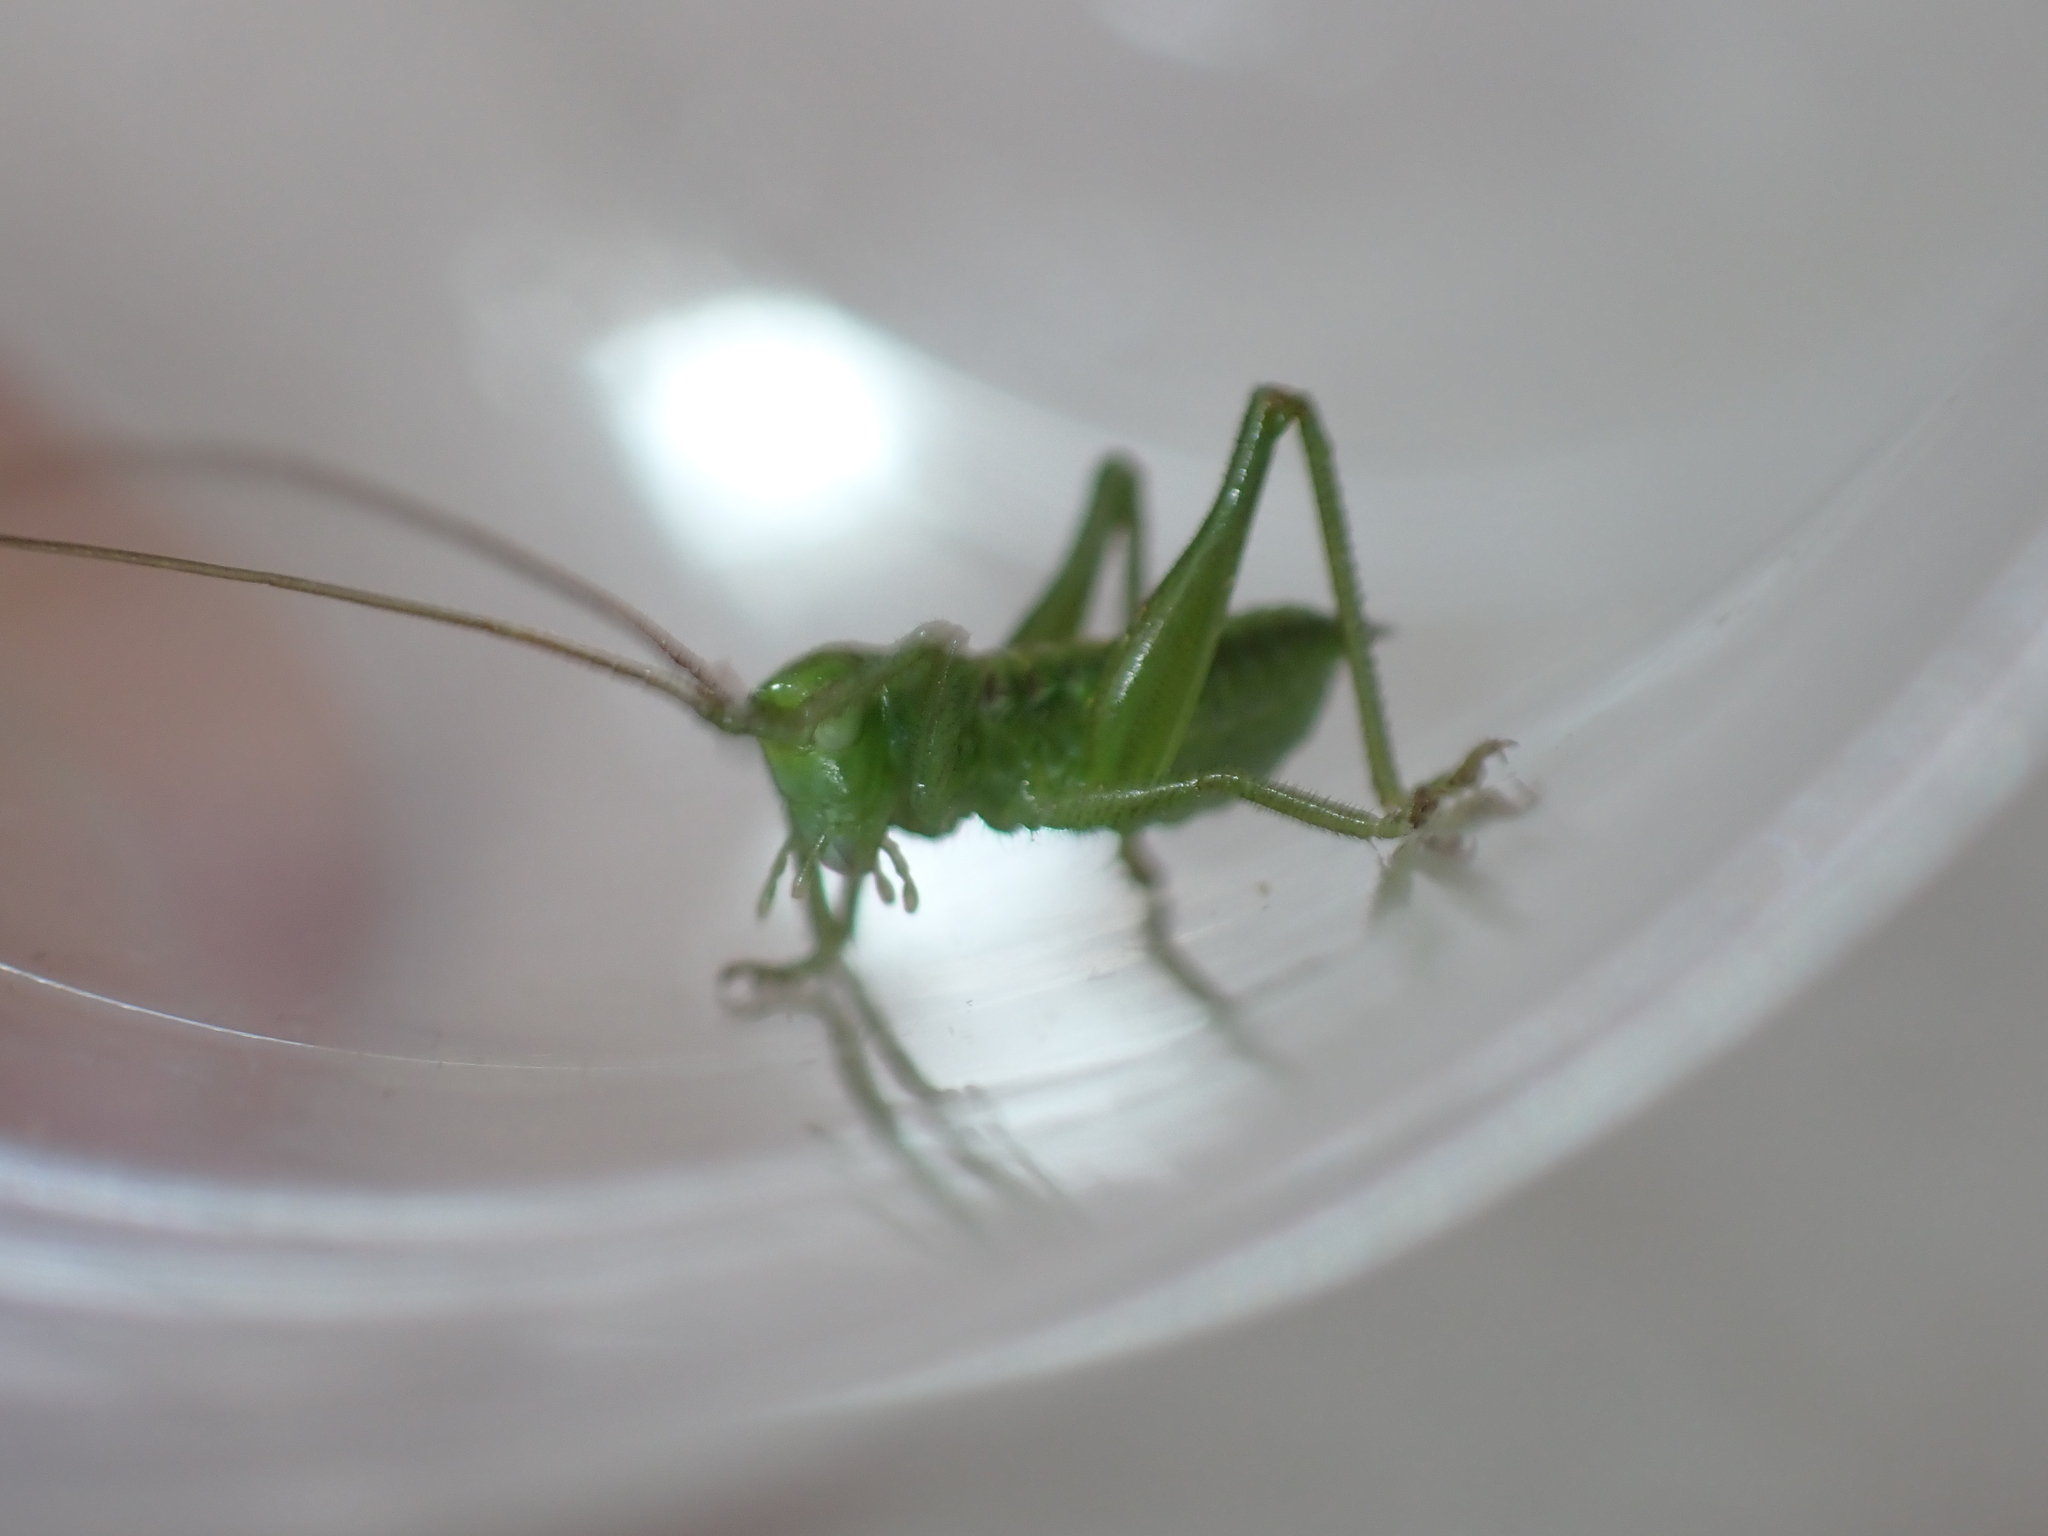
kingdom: Animalia
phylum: Arthropoda
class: Insecta
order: Orthoptera
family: Tettigoniidae
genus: Tettigonia
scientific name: Tettigonia viridissima
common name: Great green bush-cricket
